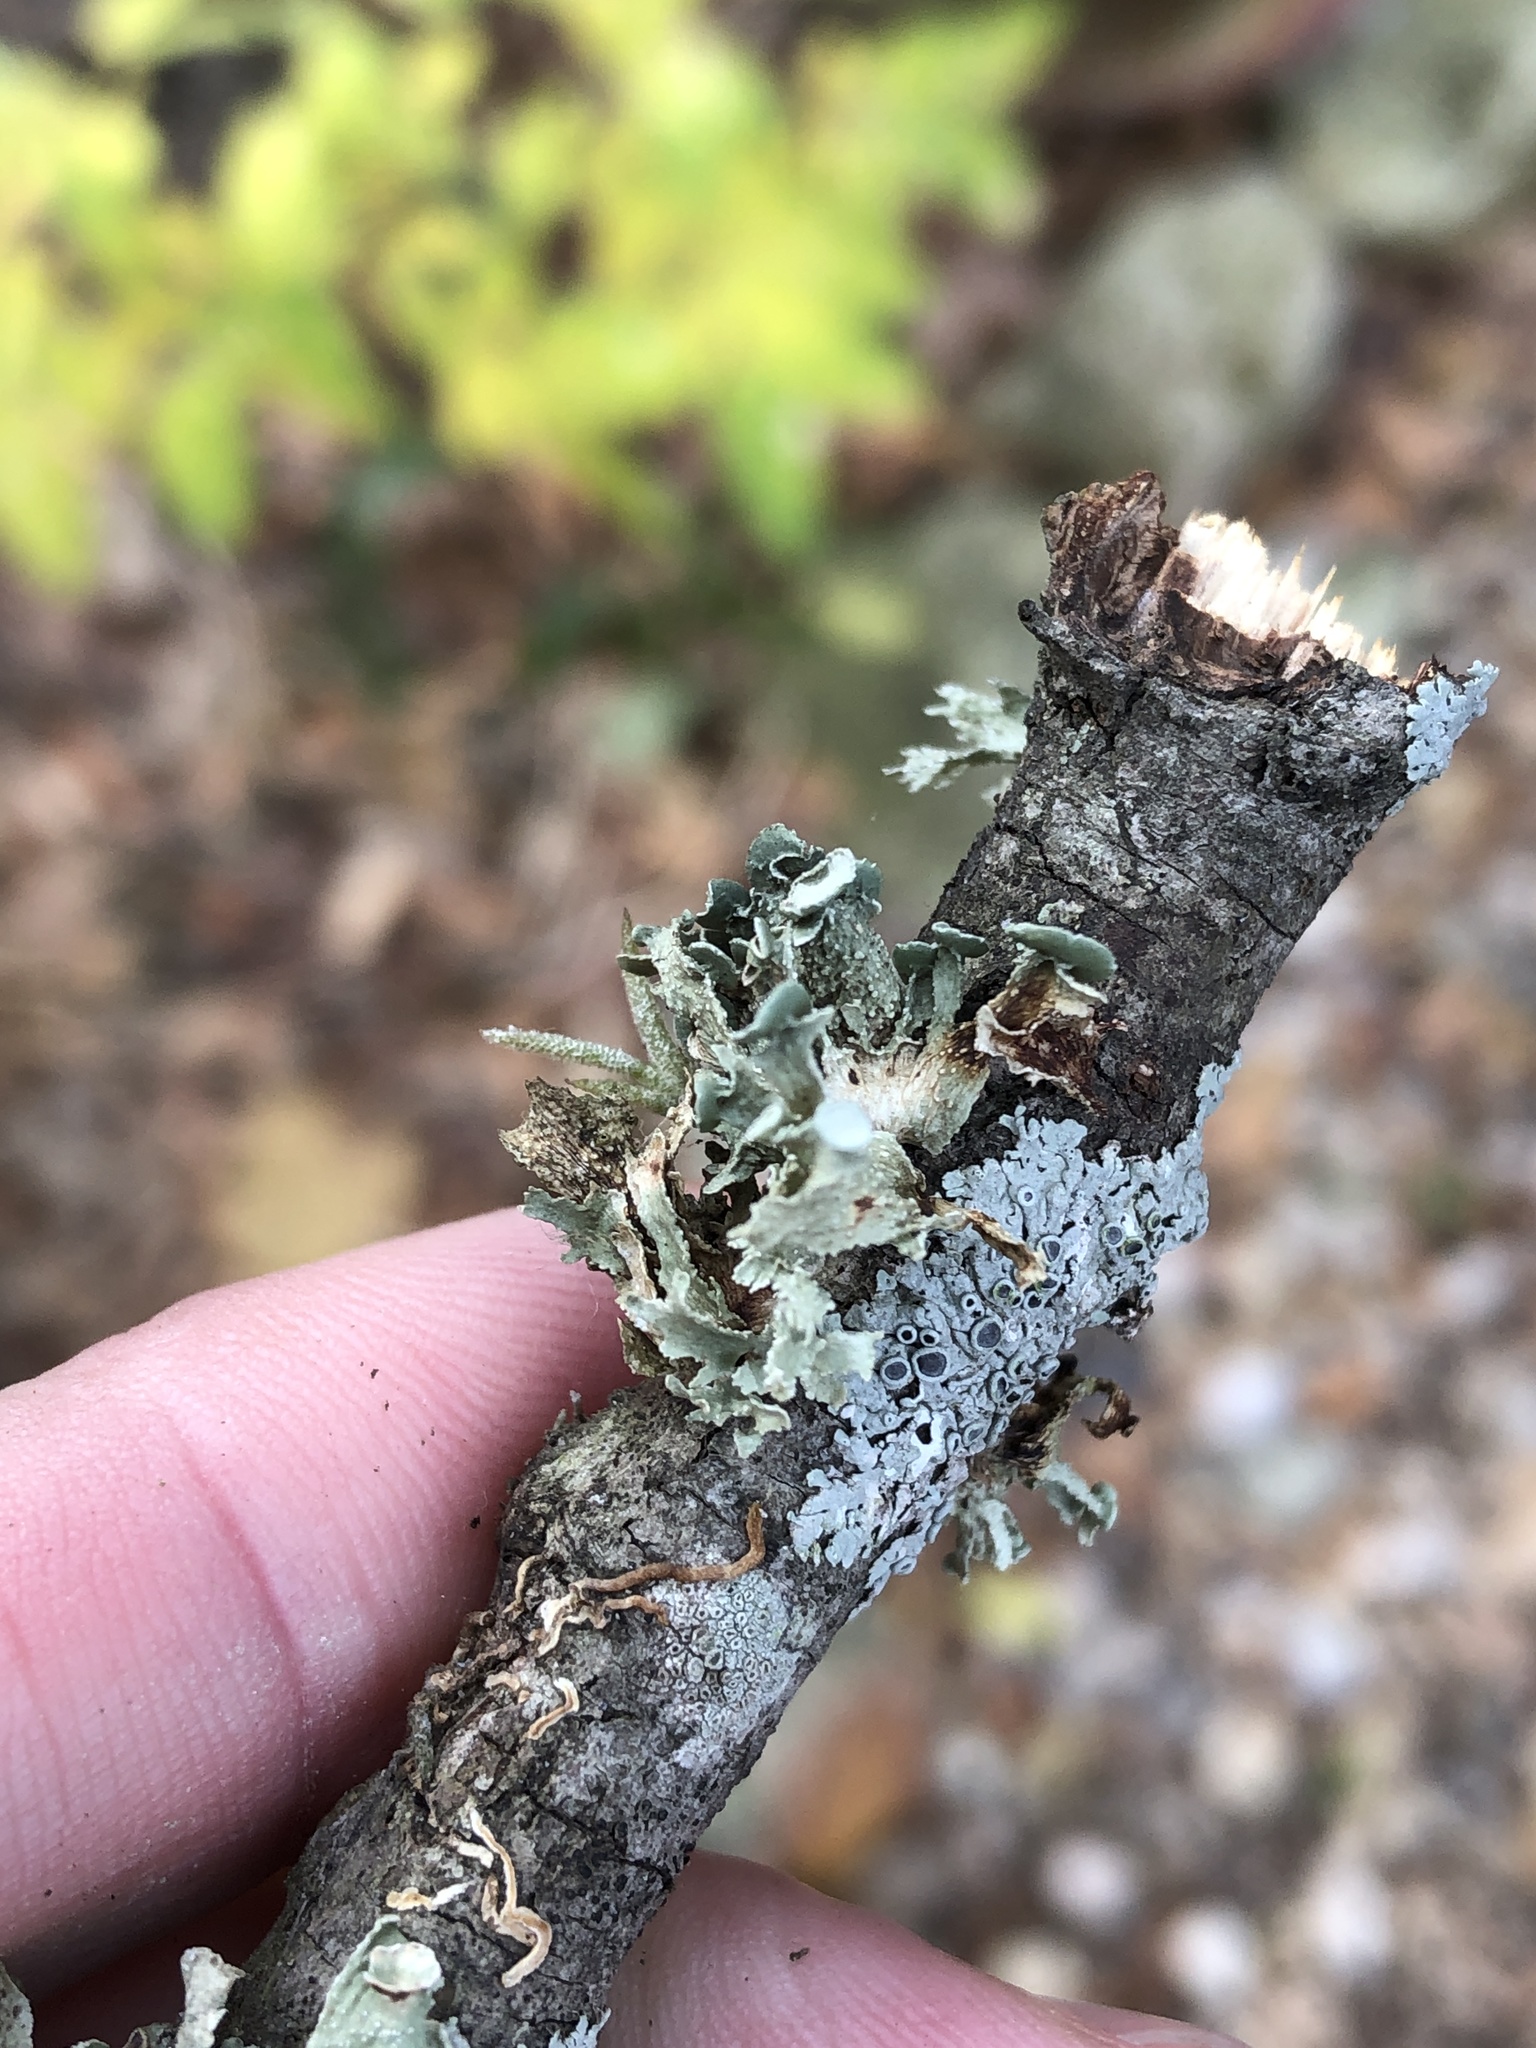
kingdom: Fungi
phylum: Ascomycota
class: Lecanoromycetes
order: Lecanorales
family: Ramalinaceae
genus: Ramalina
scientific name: Ramalina complanata
